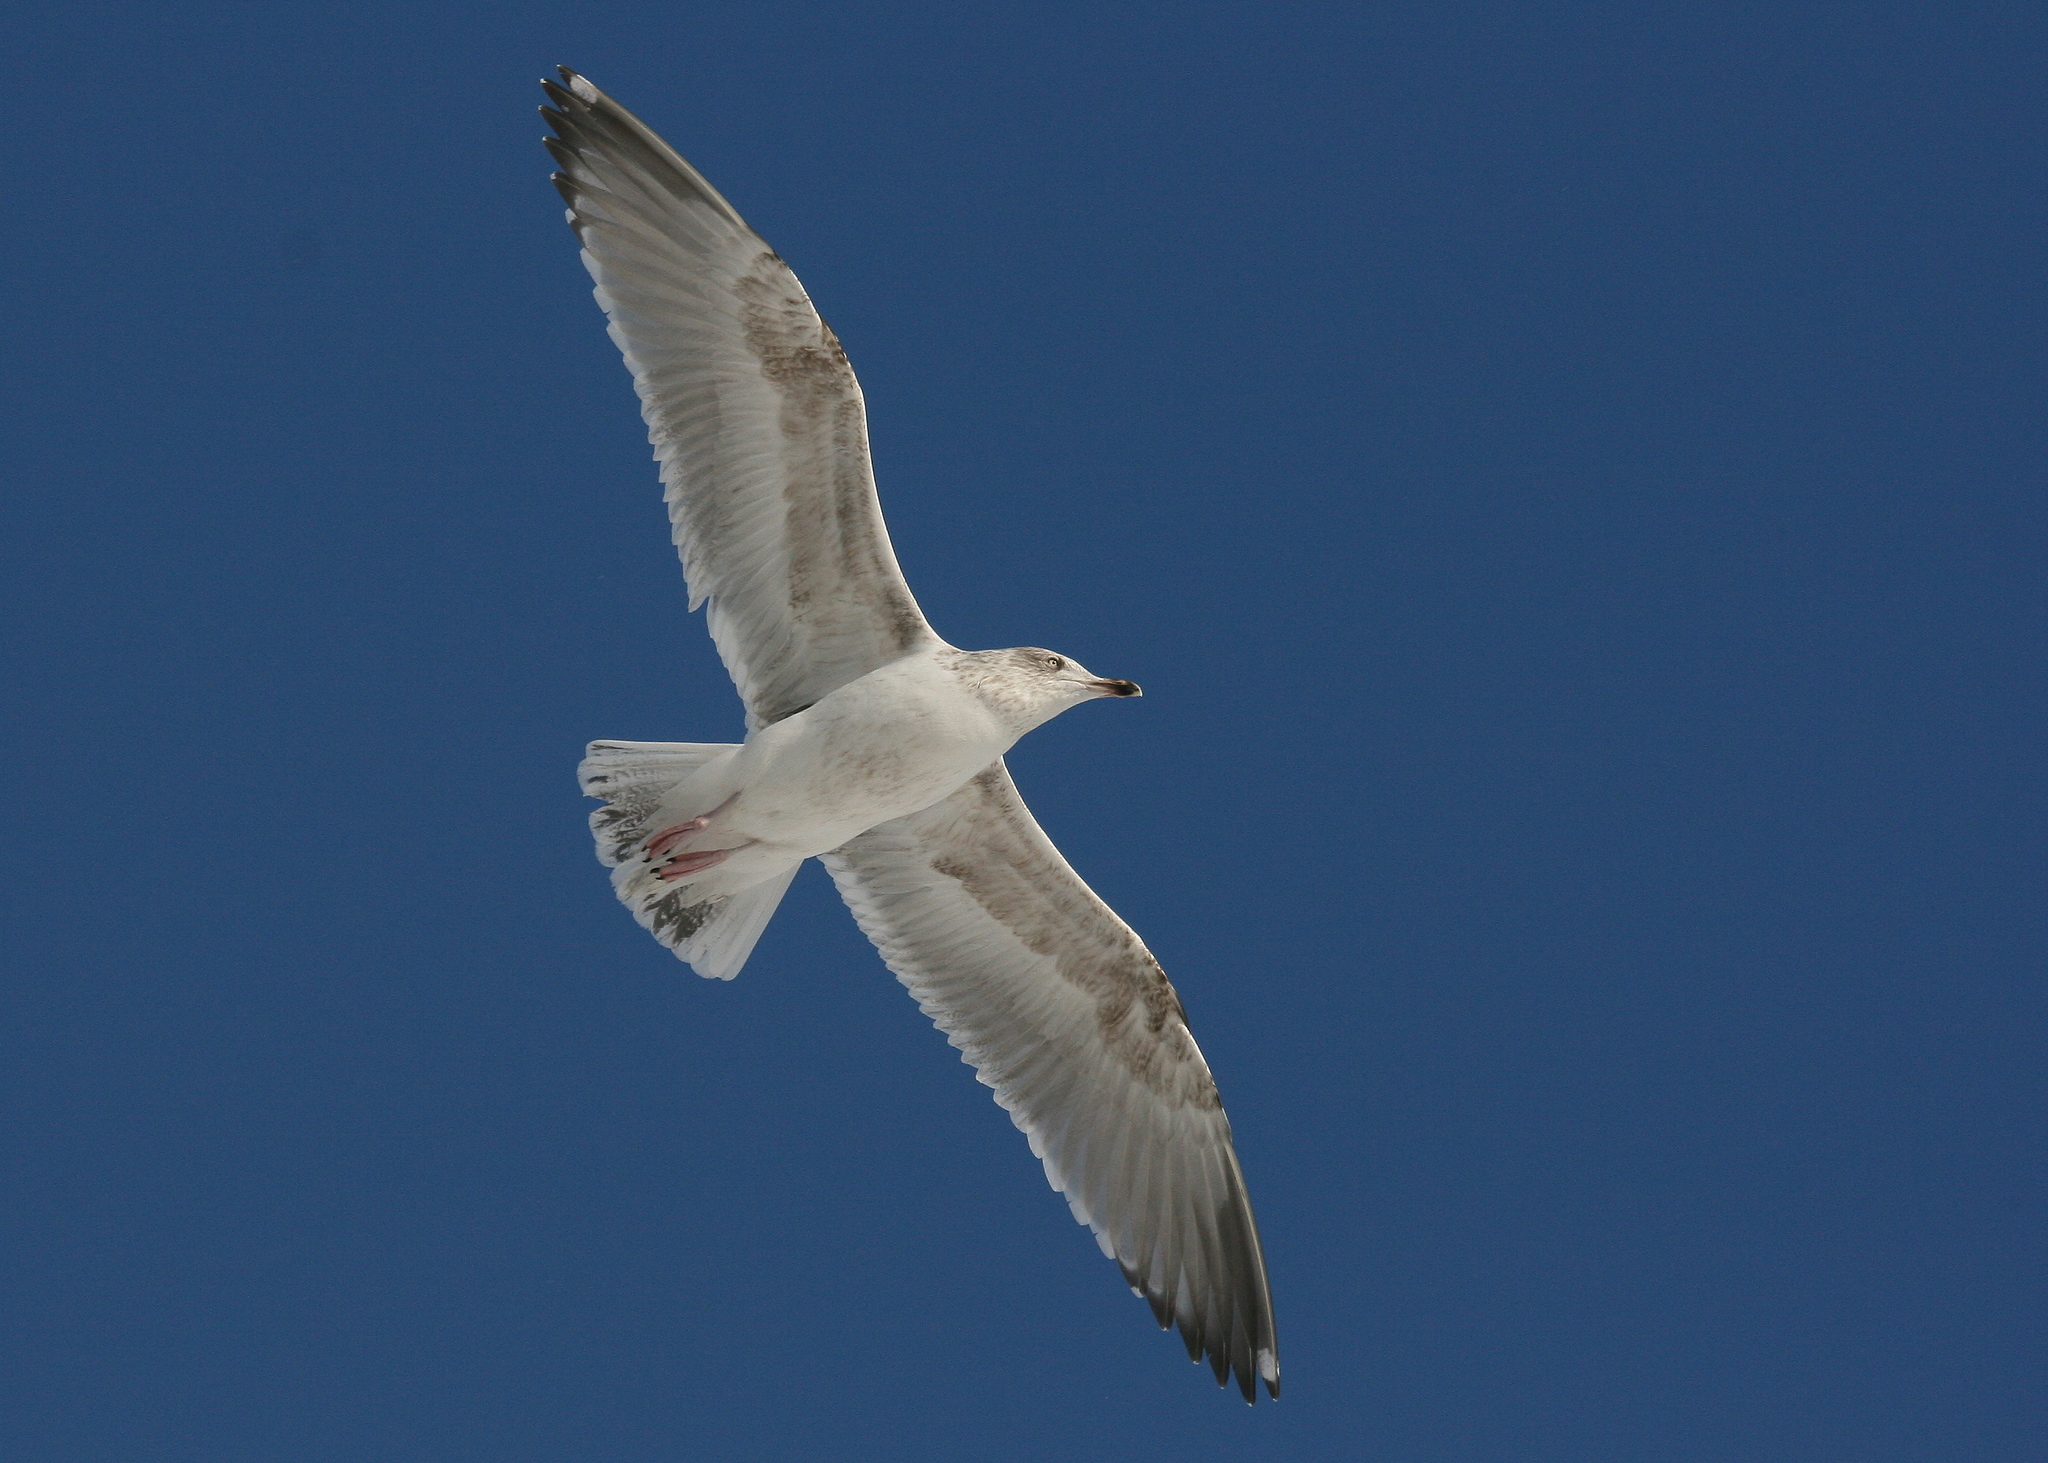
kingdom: Animalia
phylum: Chordata
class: Aves
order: Charadriiformes
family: Laridae
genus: Larus
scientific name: Larus argentatus
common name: Herring gull
